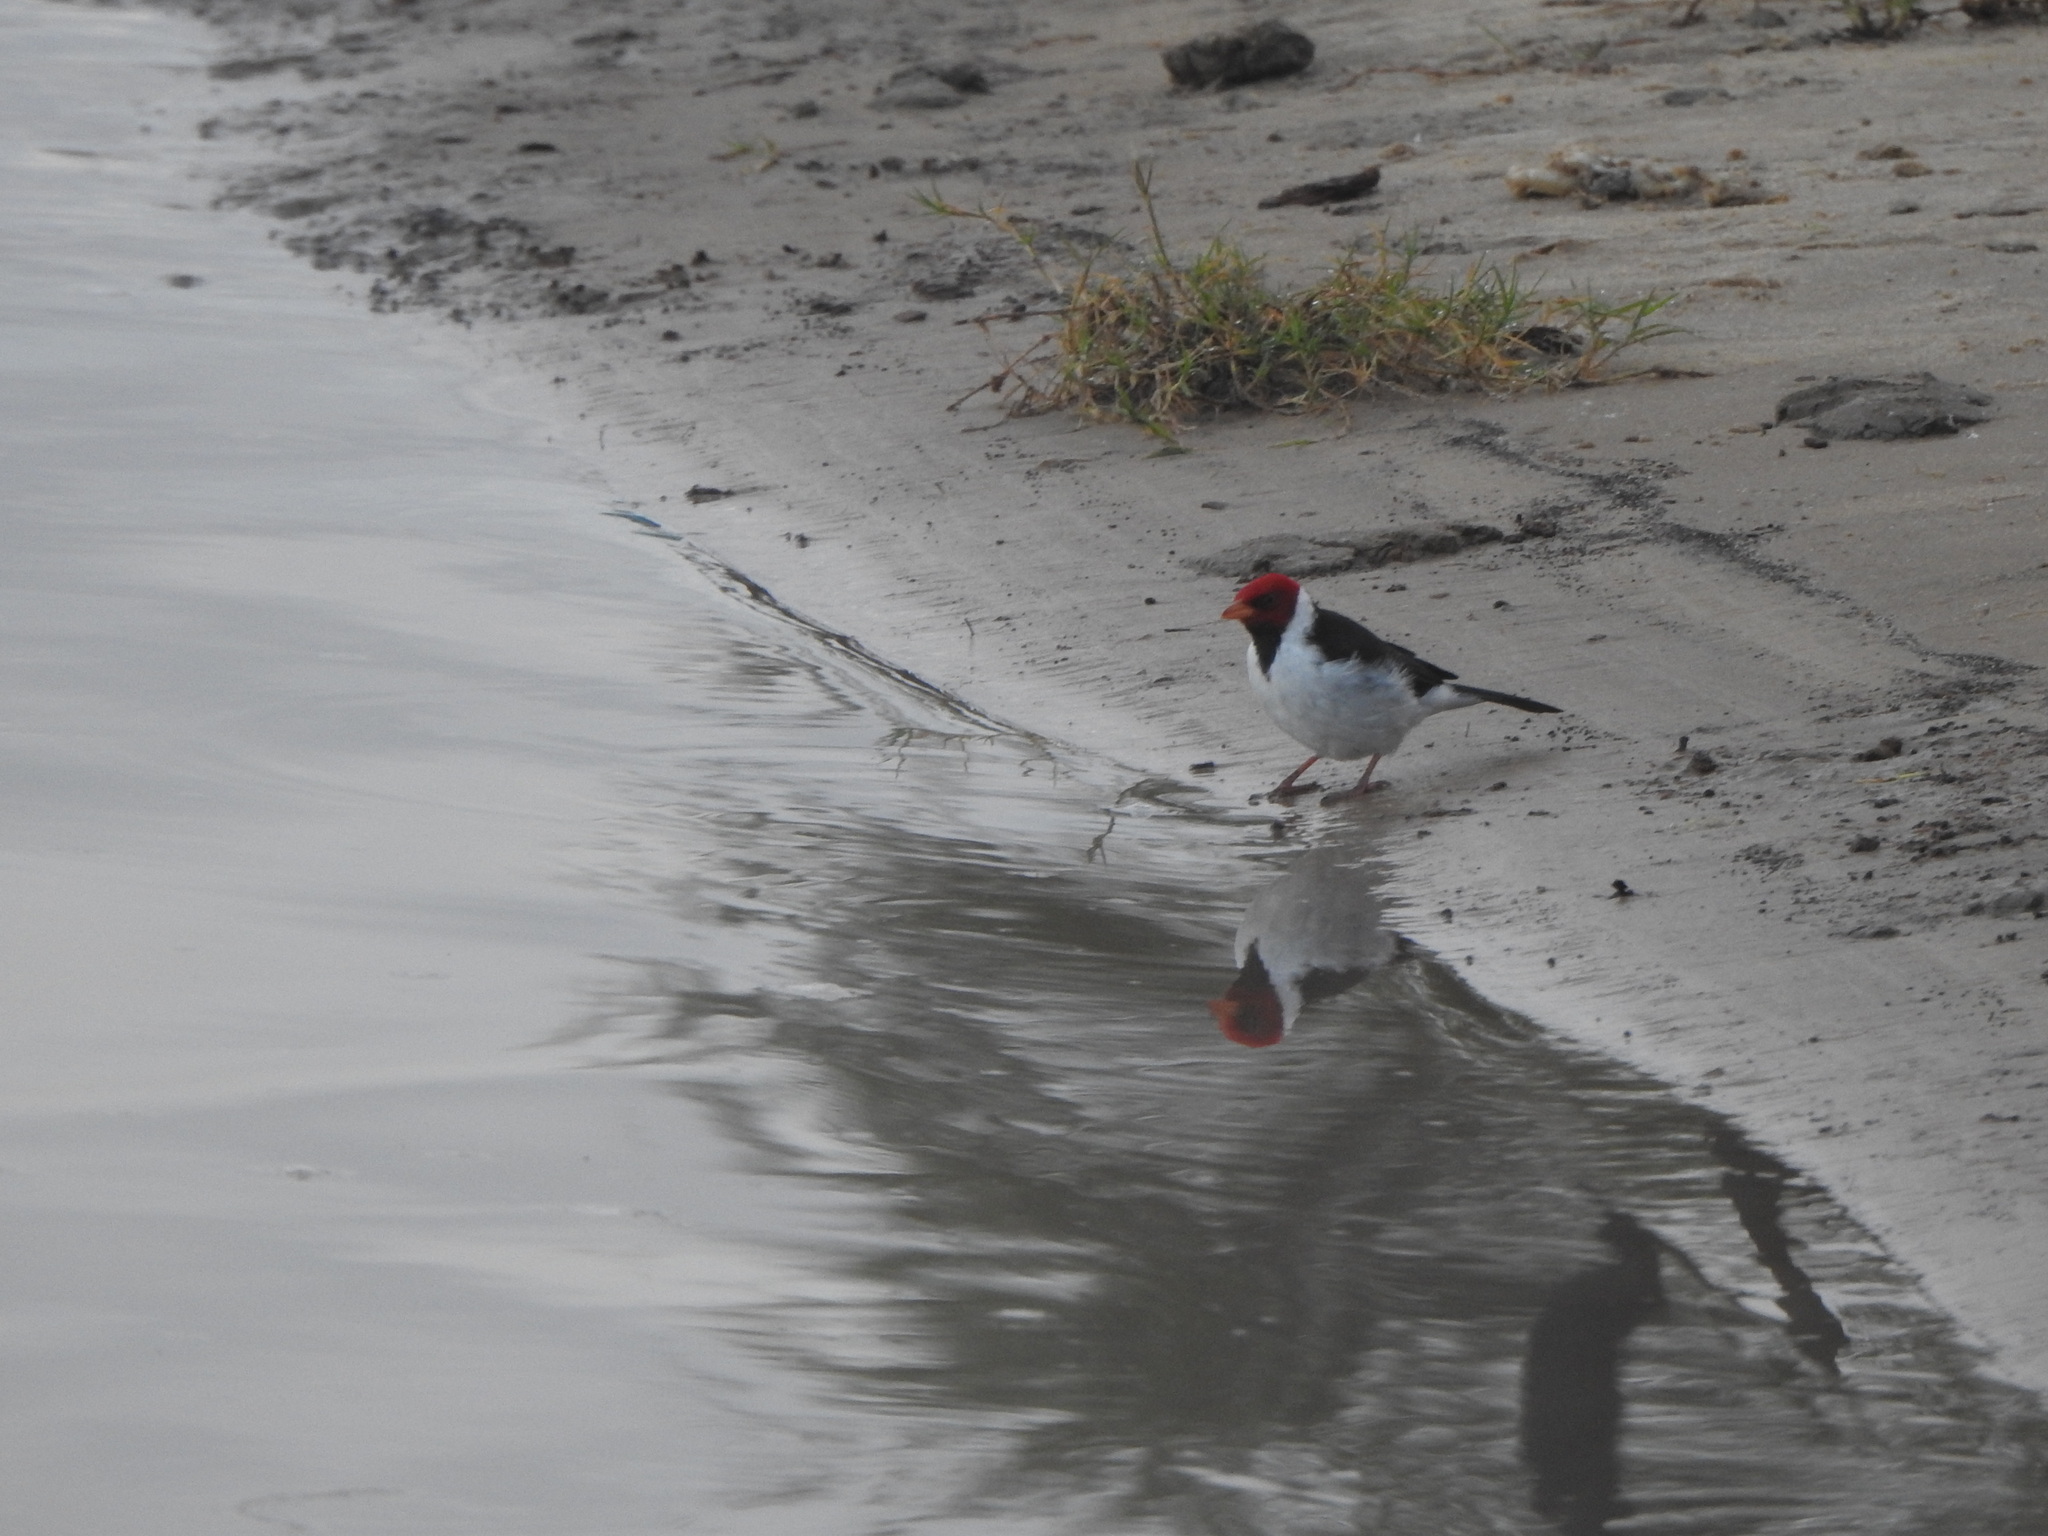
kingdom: Animalia
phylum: Chordata
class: Aves
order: Passeriformes
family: Thraupidae
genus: Paroaria
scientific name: Paroaria capitata
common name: Yellow-billed cardinal
